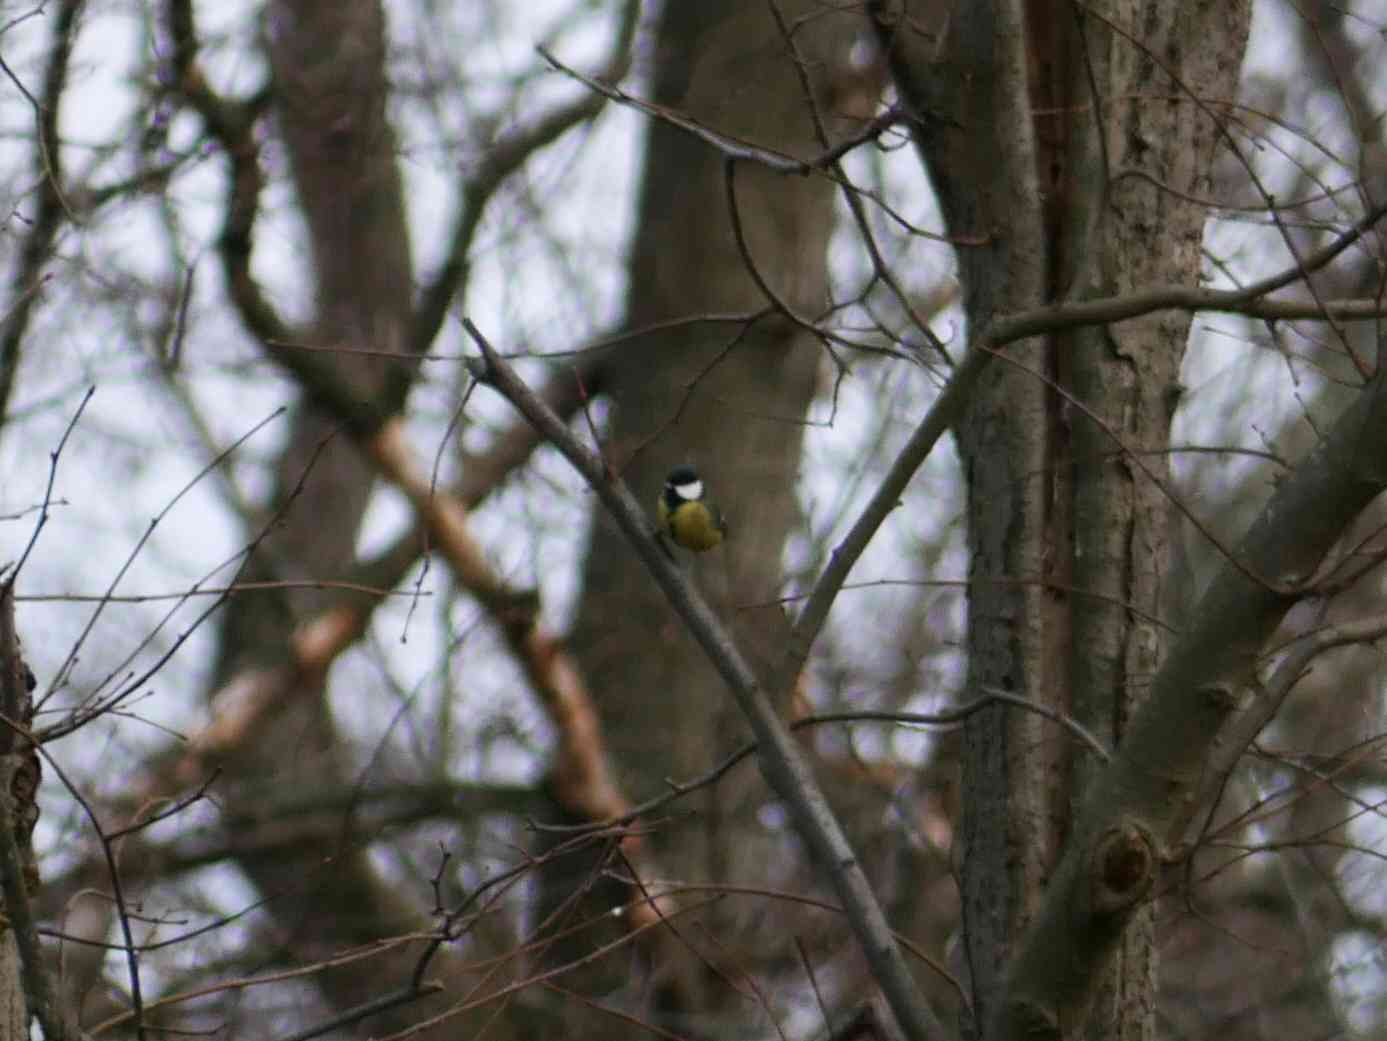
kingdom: Animalia
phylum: Chordata
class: Aves
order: Passeriformes
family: Paridae
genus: Parus
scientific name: Parus major
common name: Great tit
